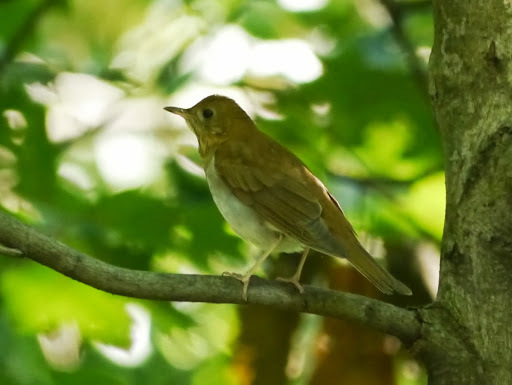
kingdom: Animalia
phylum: Chordata
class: Aves
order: Passeriformes
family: Turdidae
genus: Catharus
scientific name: Catharus ustulatus
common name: Swainson's thrush
